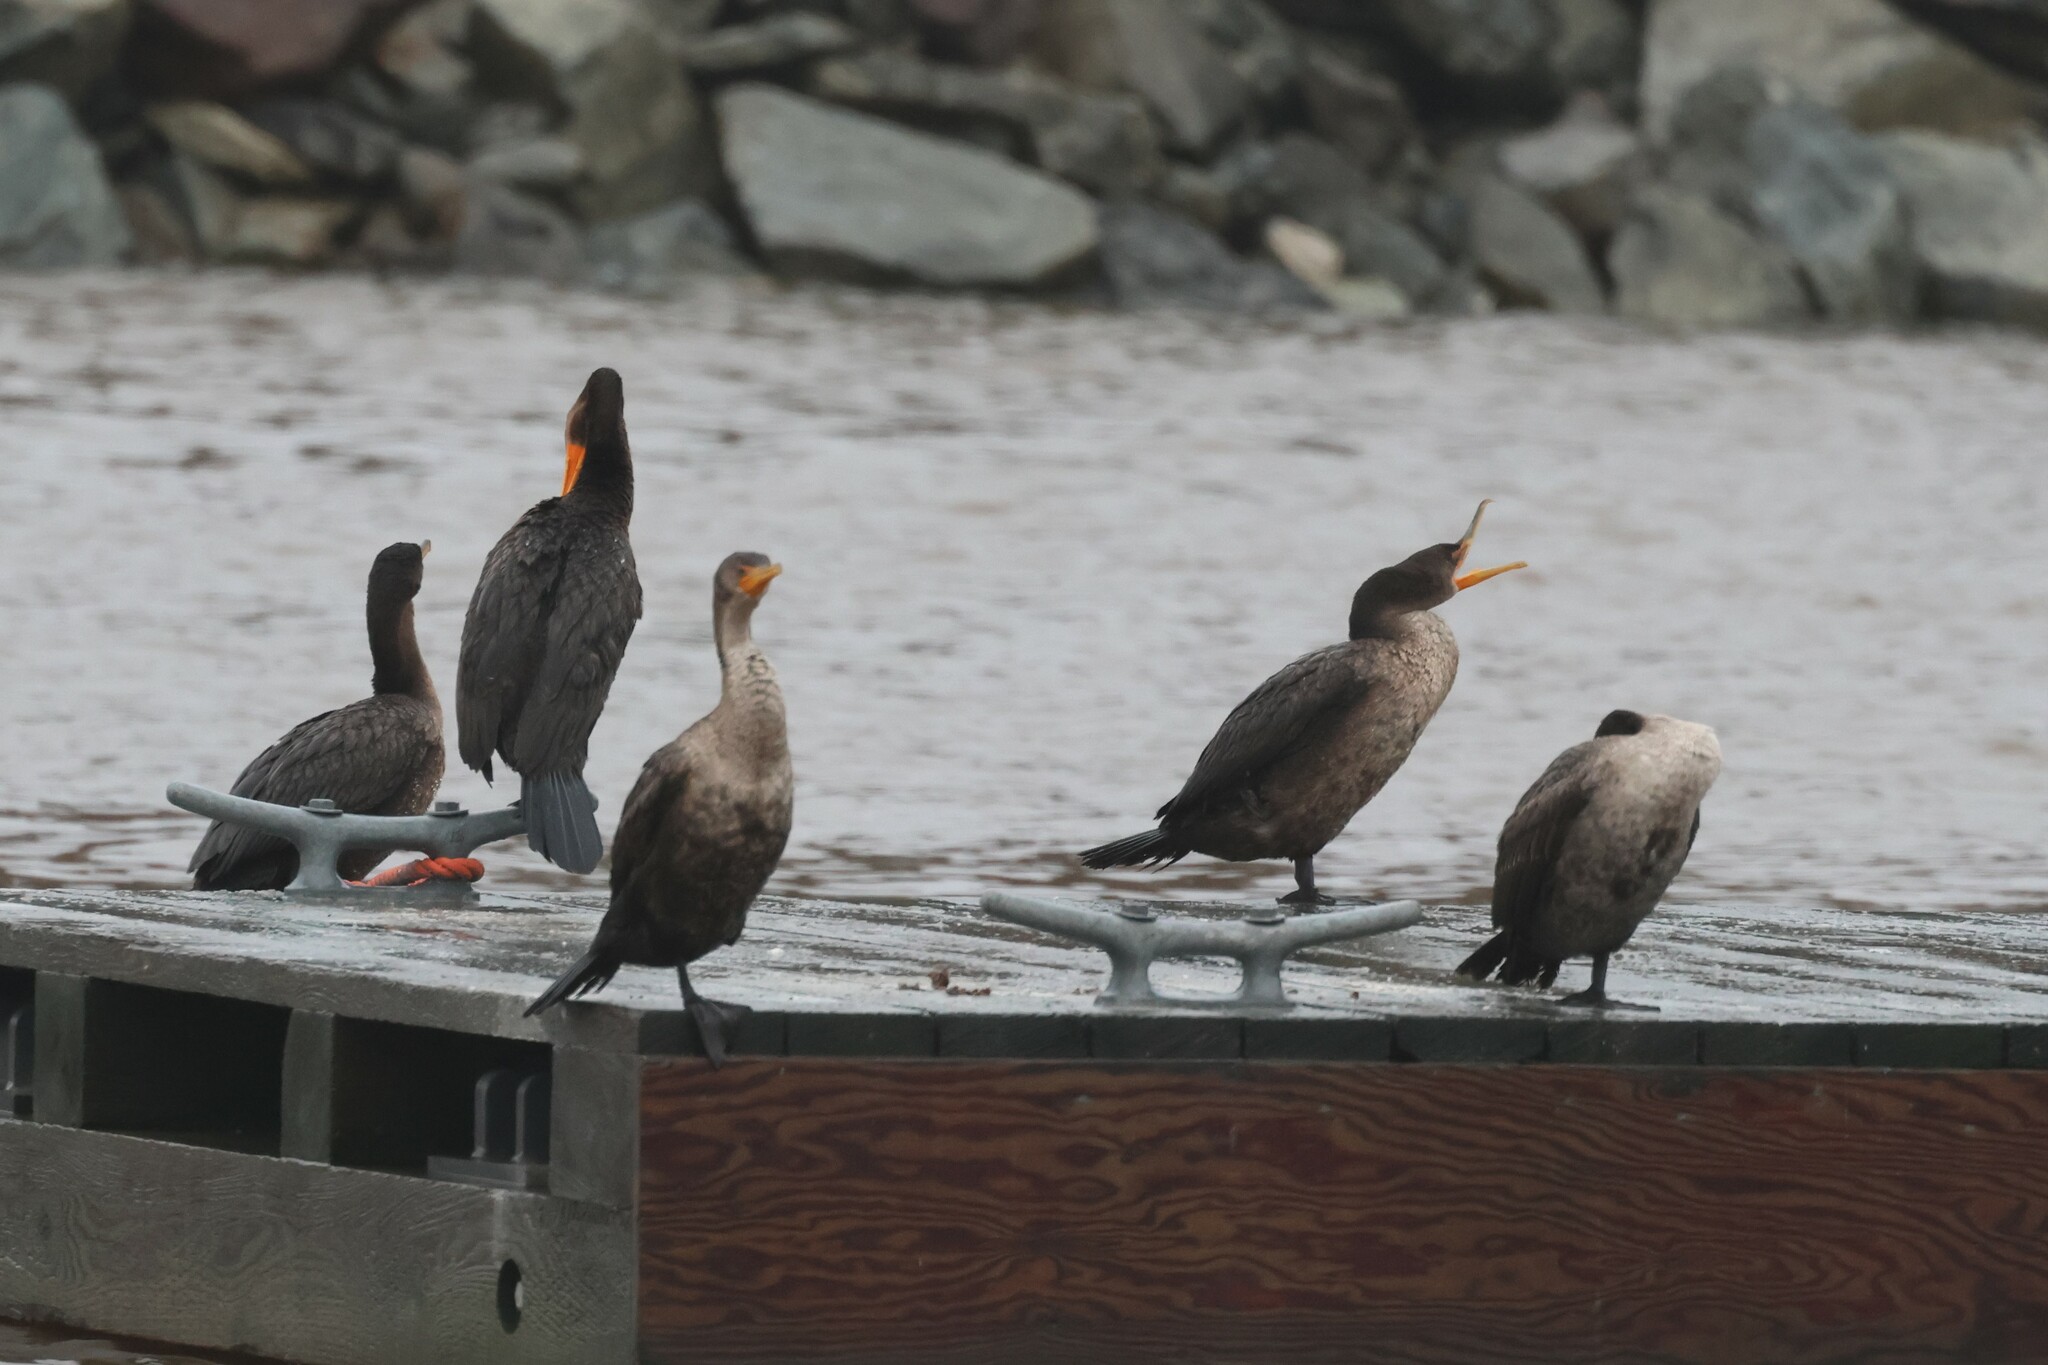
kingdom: Animalia
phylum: Chordata
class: Aves
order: Suliformes
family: Phalacrocoracidae
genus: Phalacrocorax
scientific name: Phalacrocorax auritus
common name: Double-crested cormorant
